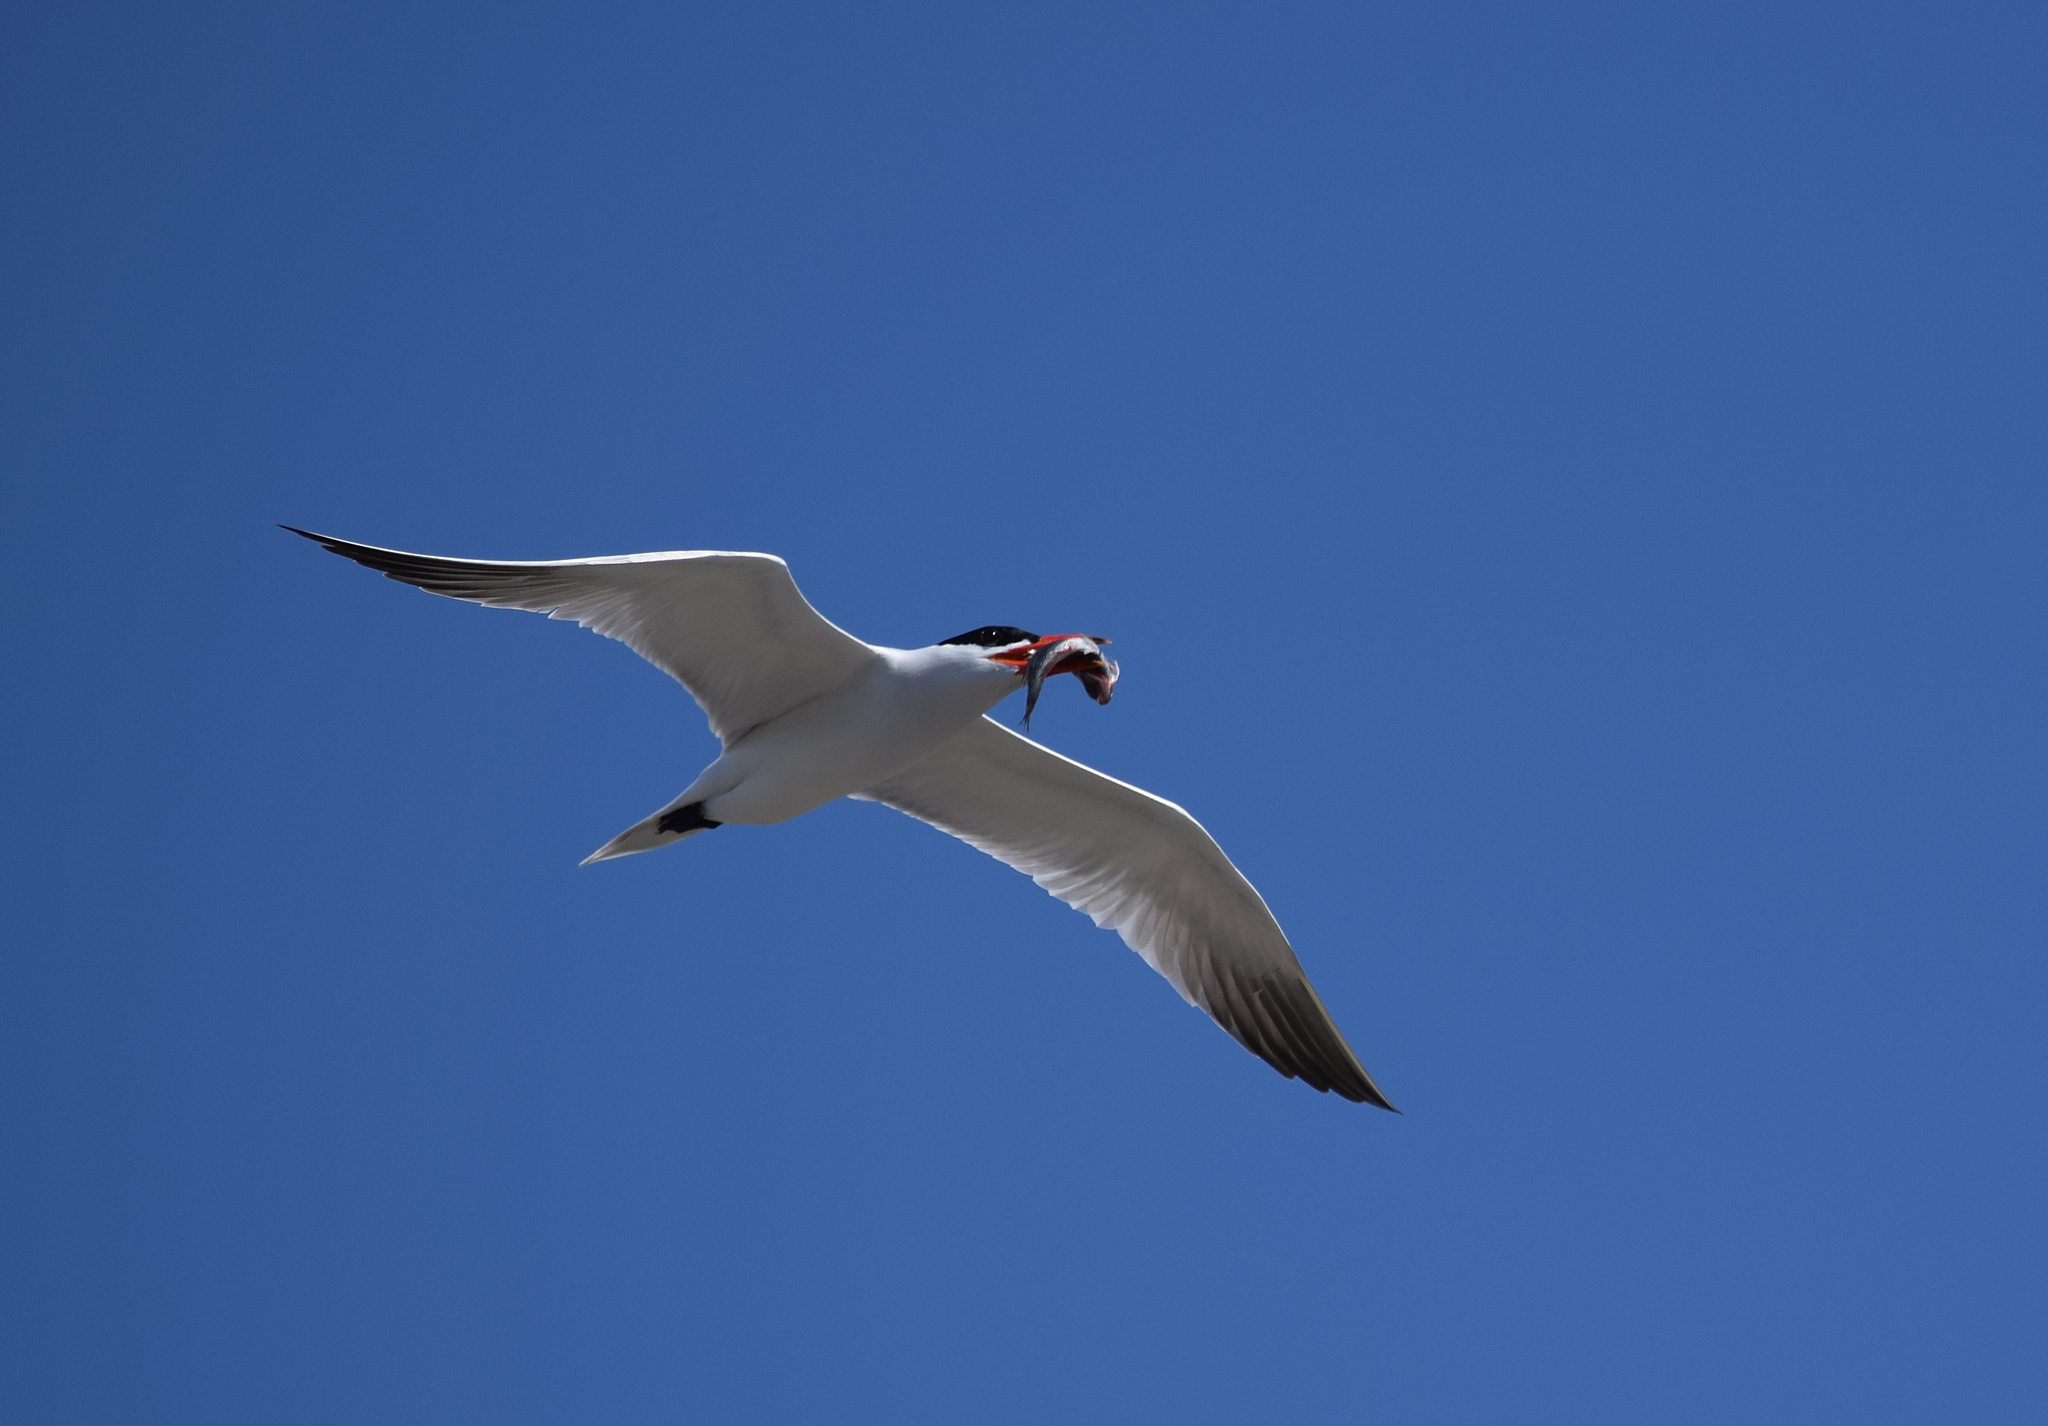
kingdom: Animalia
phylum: Chordata
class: Aves
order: Charadriiformes
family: Laridae
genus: Hydroprogne
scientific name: Hydroprogne caspia
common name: Caspian tern
